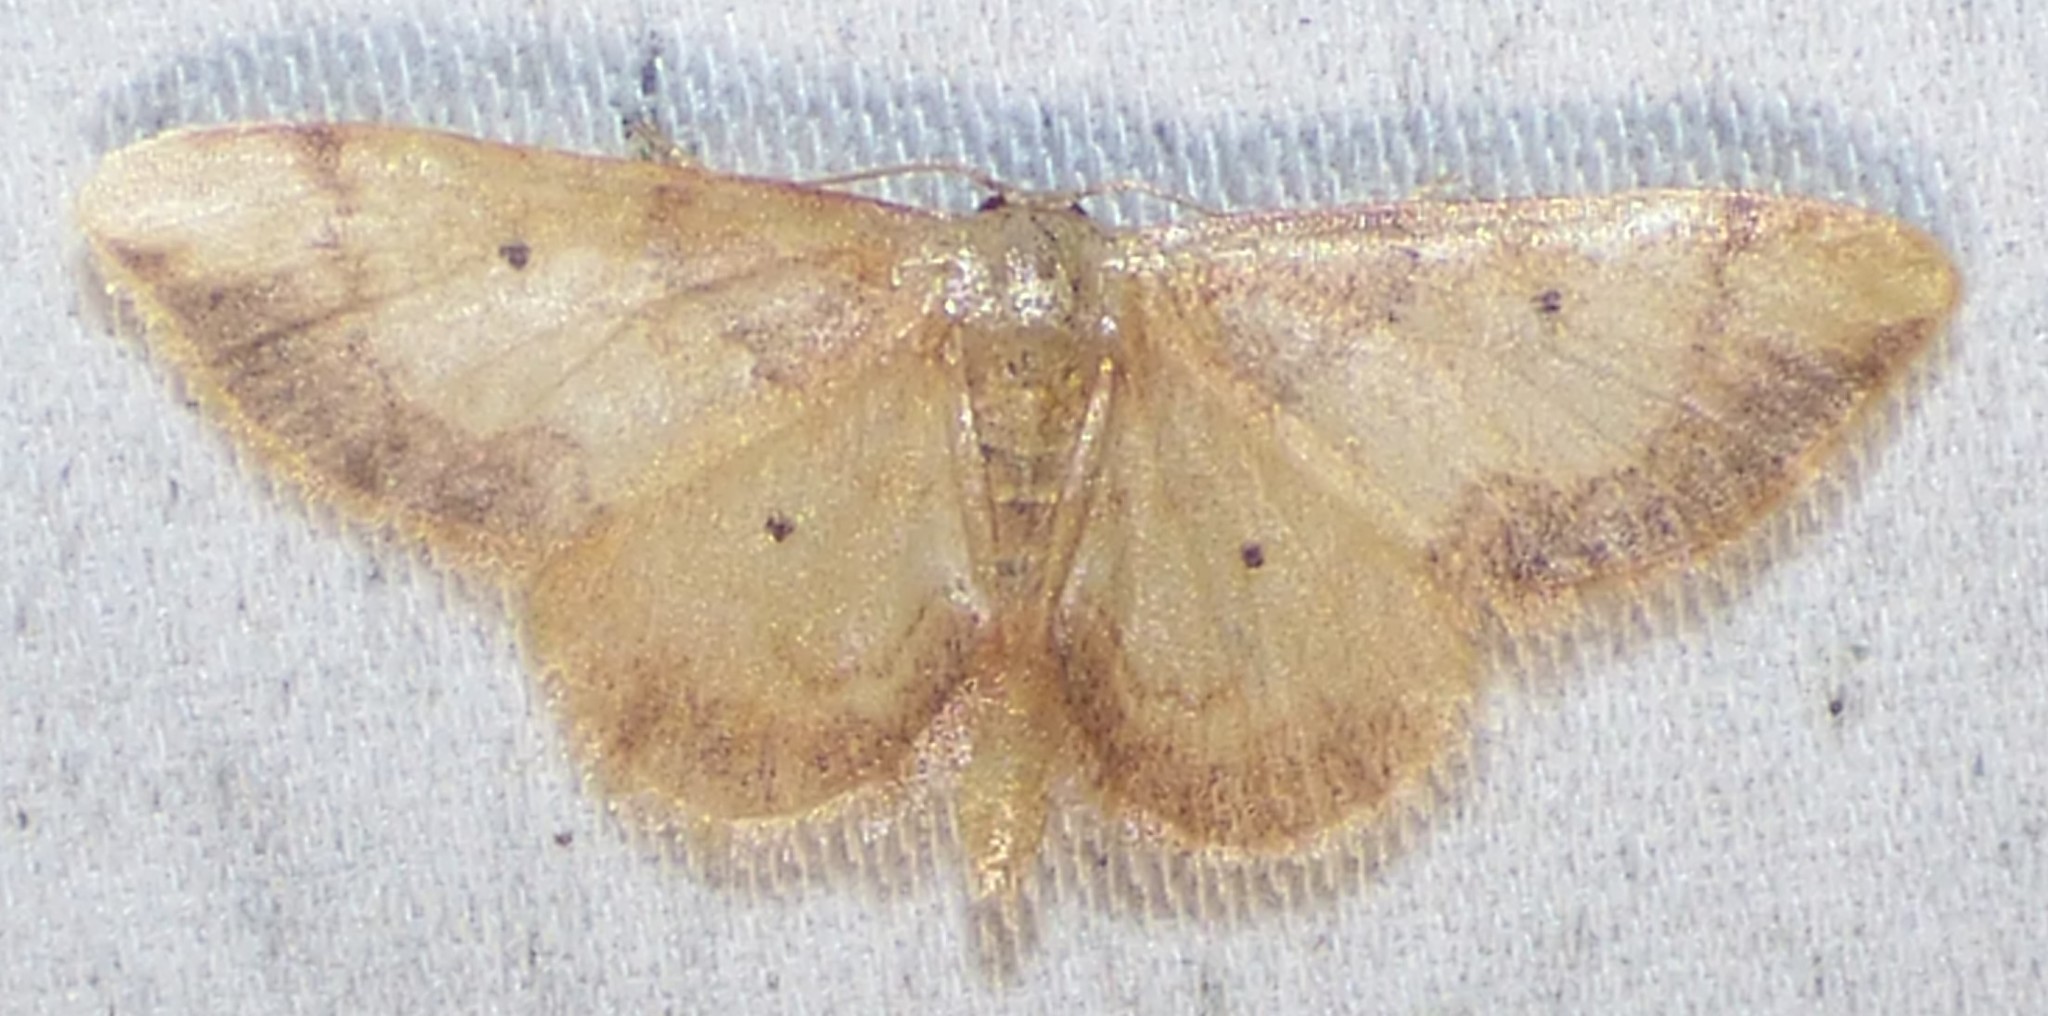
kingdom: Animalia
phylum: Arthropoda
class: Insecta
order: Lepidoptera
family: Geometridae
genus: Idaea
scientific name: Idaea demissaria
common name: Red-bordered wave
